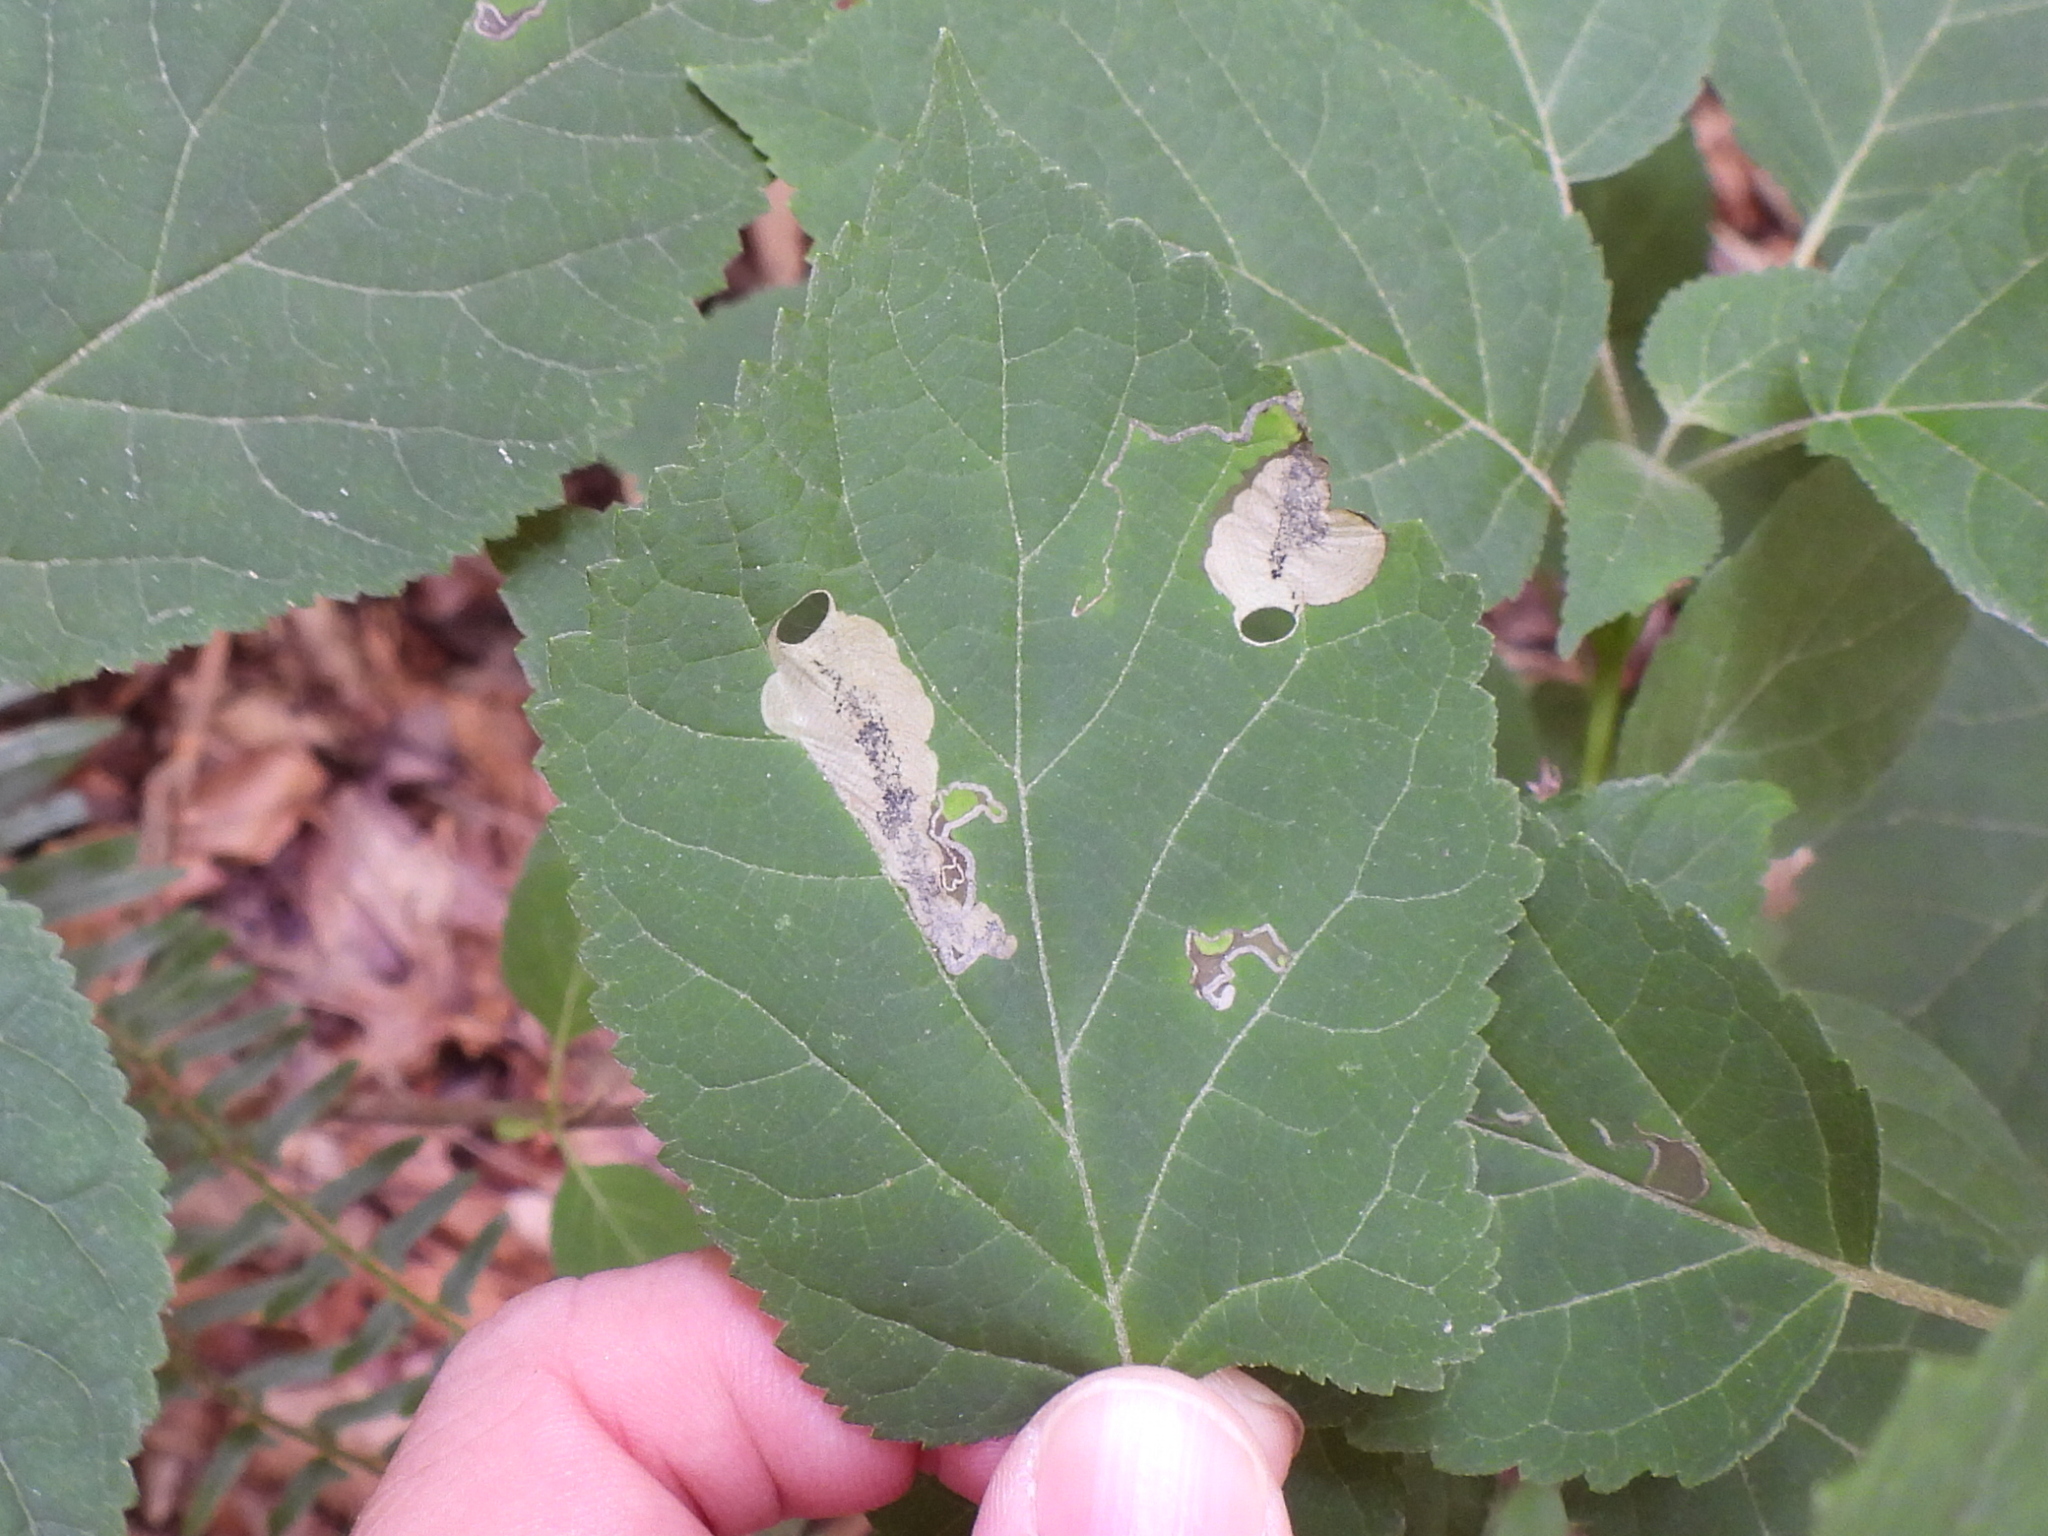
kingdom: Animalia
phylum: Arthropoda
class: Insecta
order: Lepidoptera
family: Heliozelidae
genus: Aspilanta
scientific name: Aspilanta hydrangaeella
